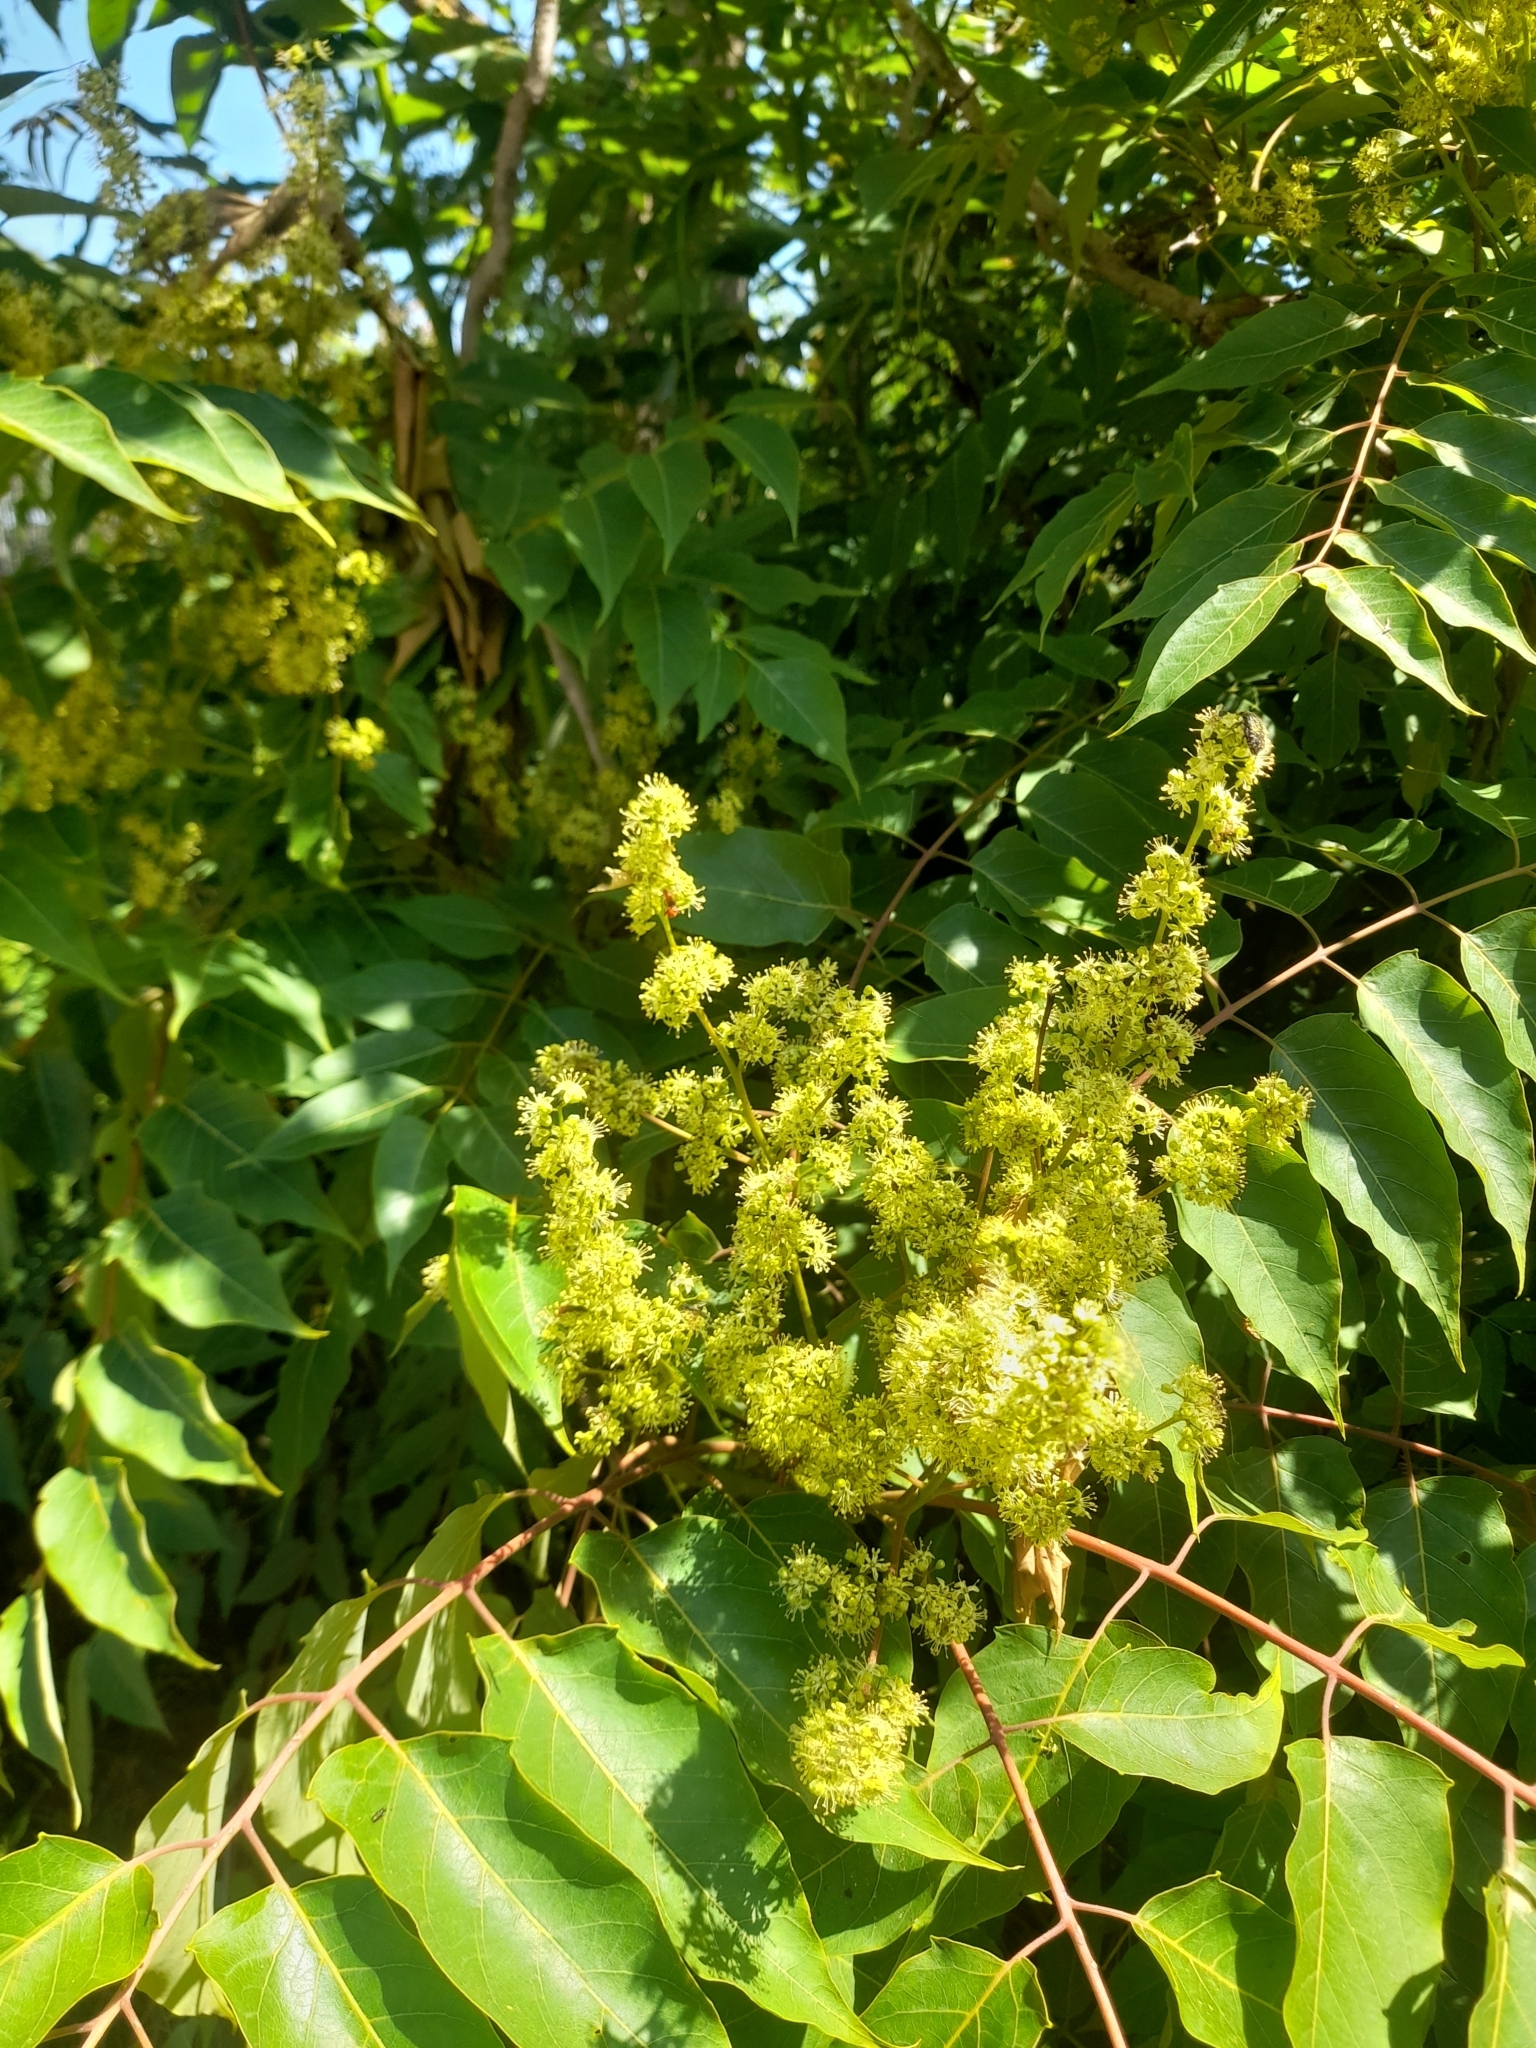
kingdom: Plantae
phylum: Tracheophyta
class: Magnoliopsida
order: Sapindales
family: Simaroubaceae
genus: Ailanthus
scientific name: Ailanthus altissima
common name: Tree-of-heaven
